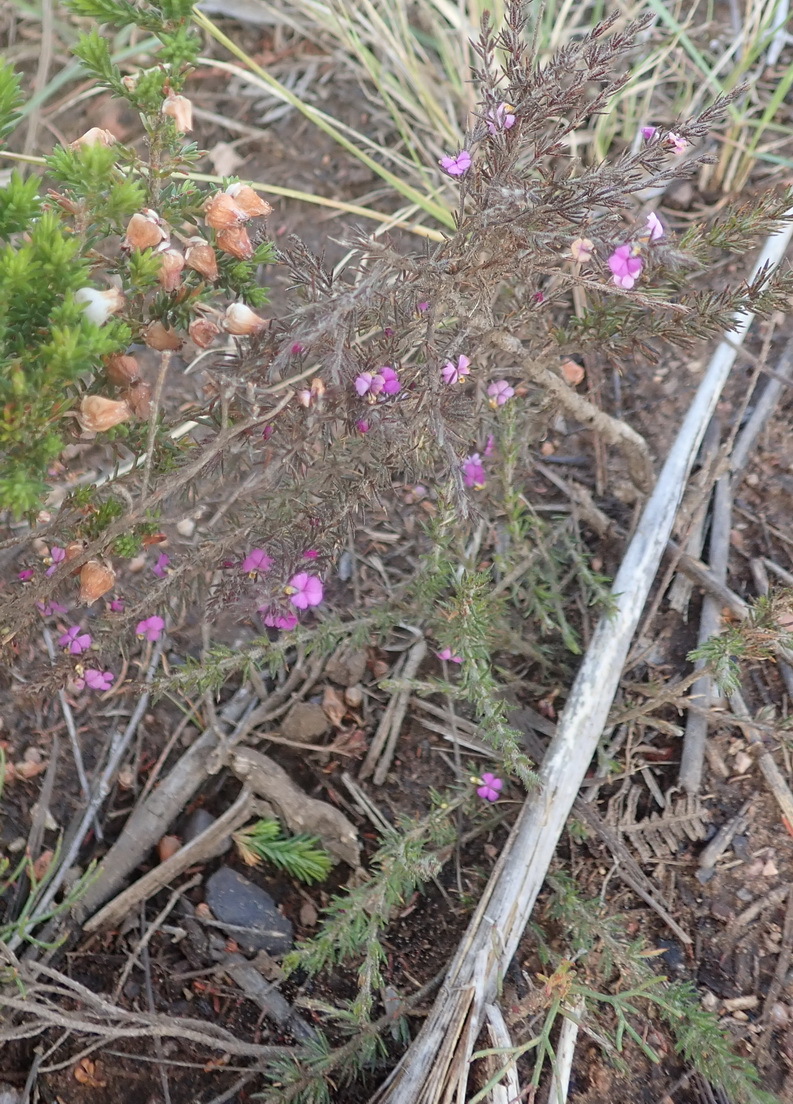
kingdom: Plantae
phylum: Tracheophyta
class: Magnoliopsida
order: Fabales
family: Polygalaceae
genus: Muraltia
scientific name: Muraltia ciliaris
